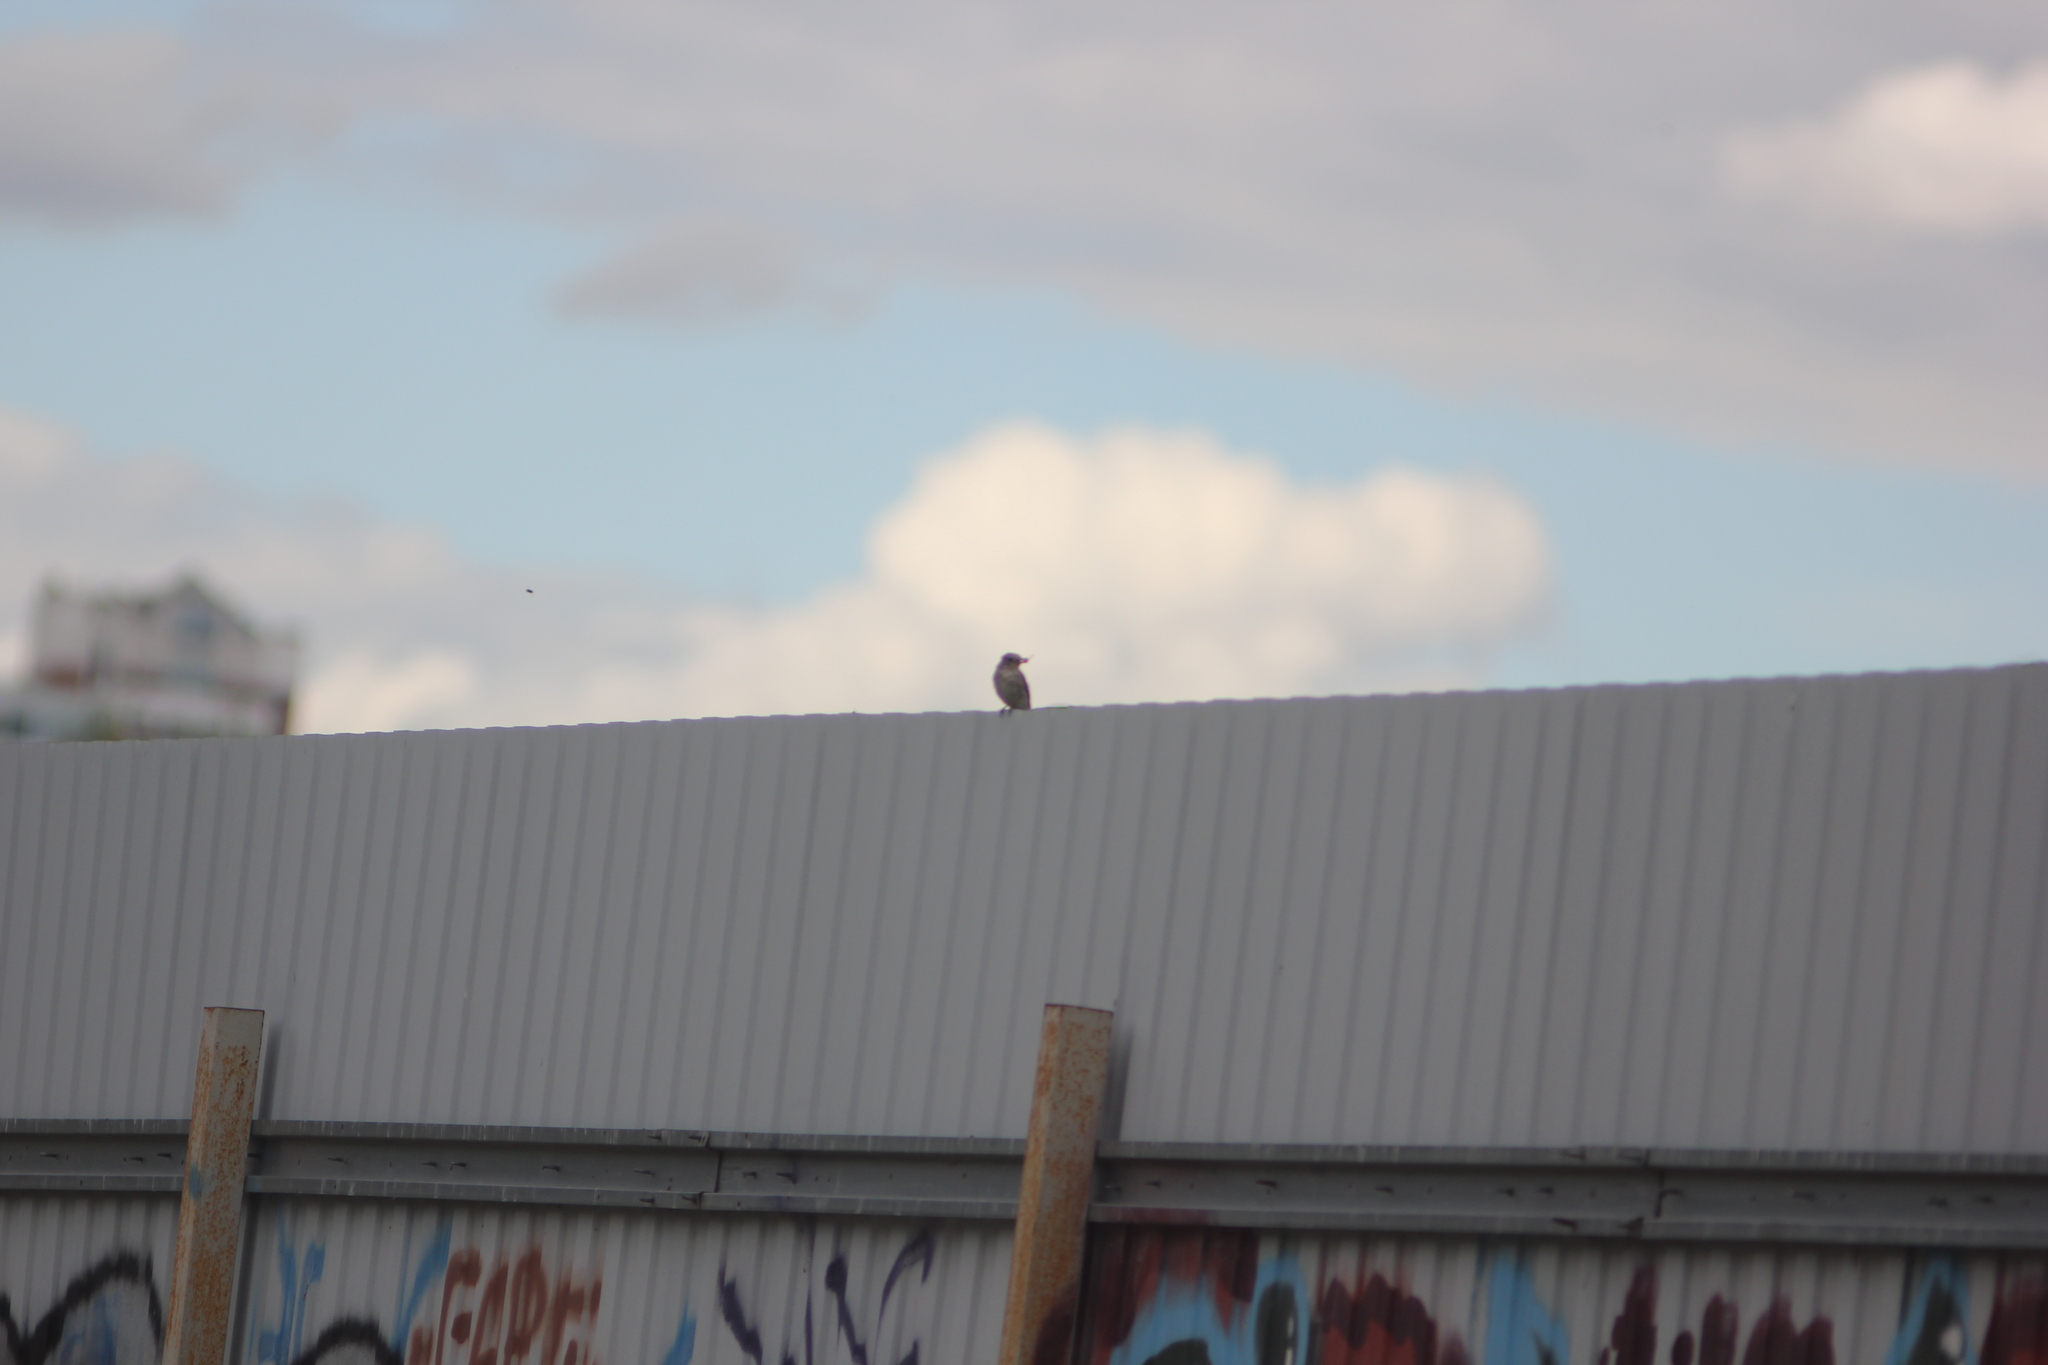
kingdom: Animalia
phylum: Chordata
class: Aves
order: Passeriformes
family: Muscicapidae
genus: Muscicapa
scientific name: Muscicapa striata
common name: Spotted flycatcher
